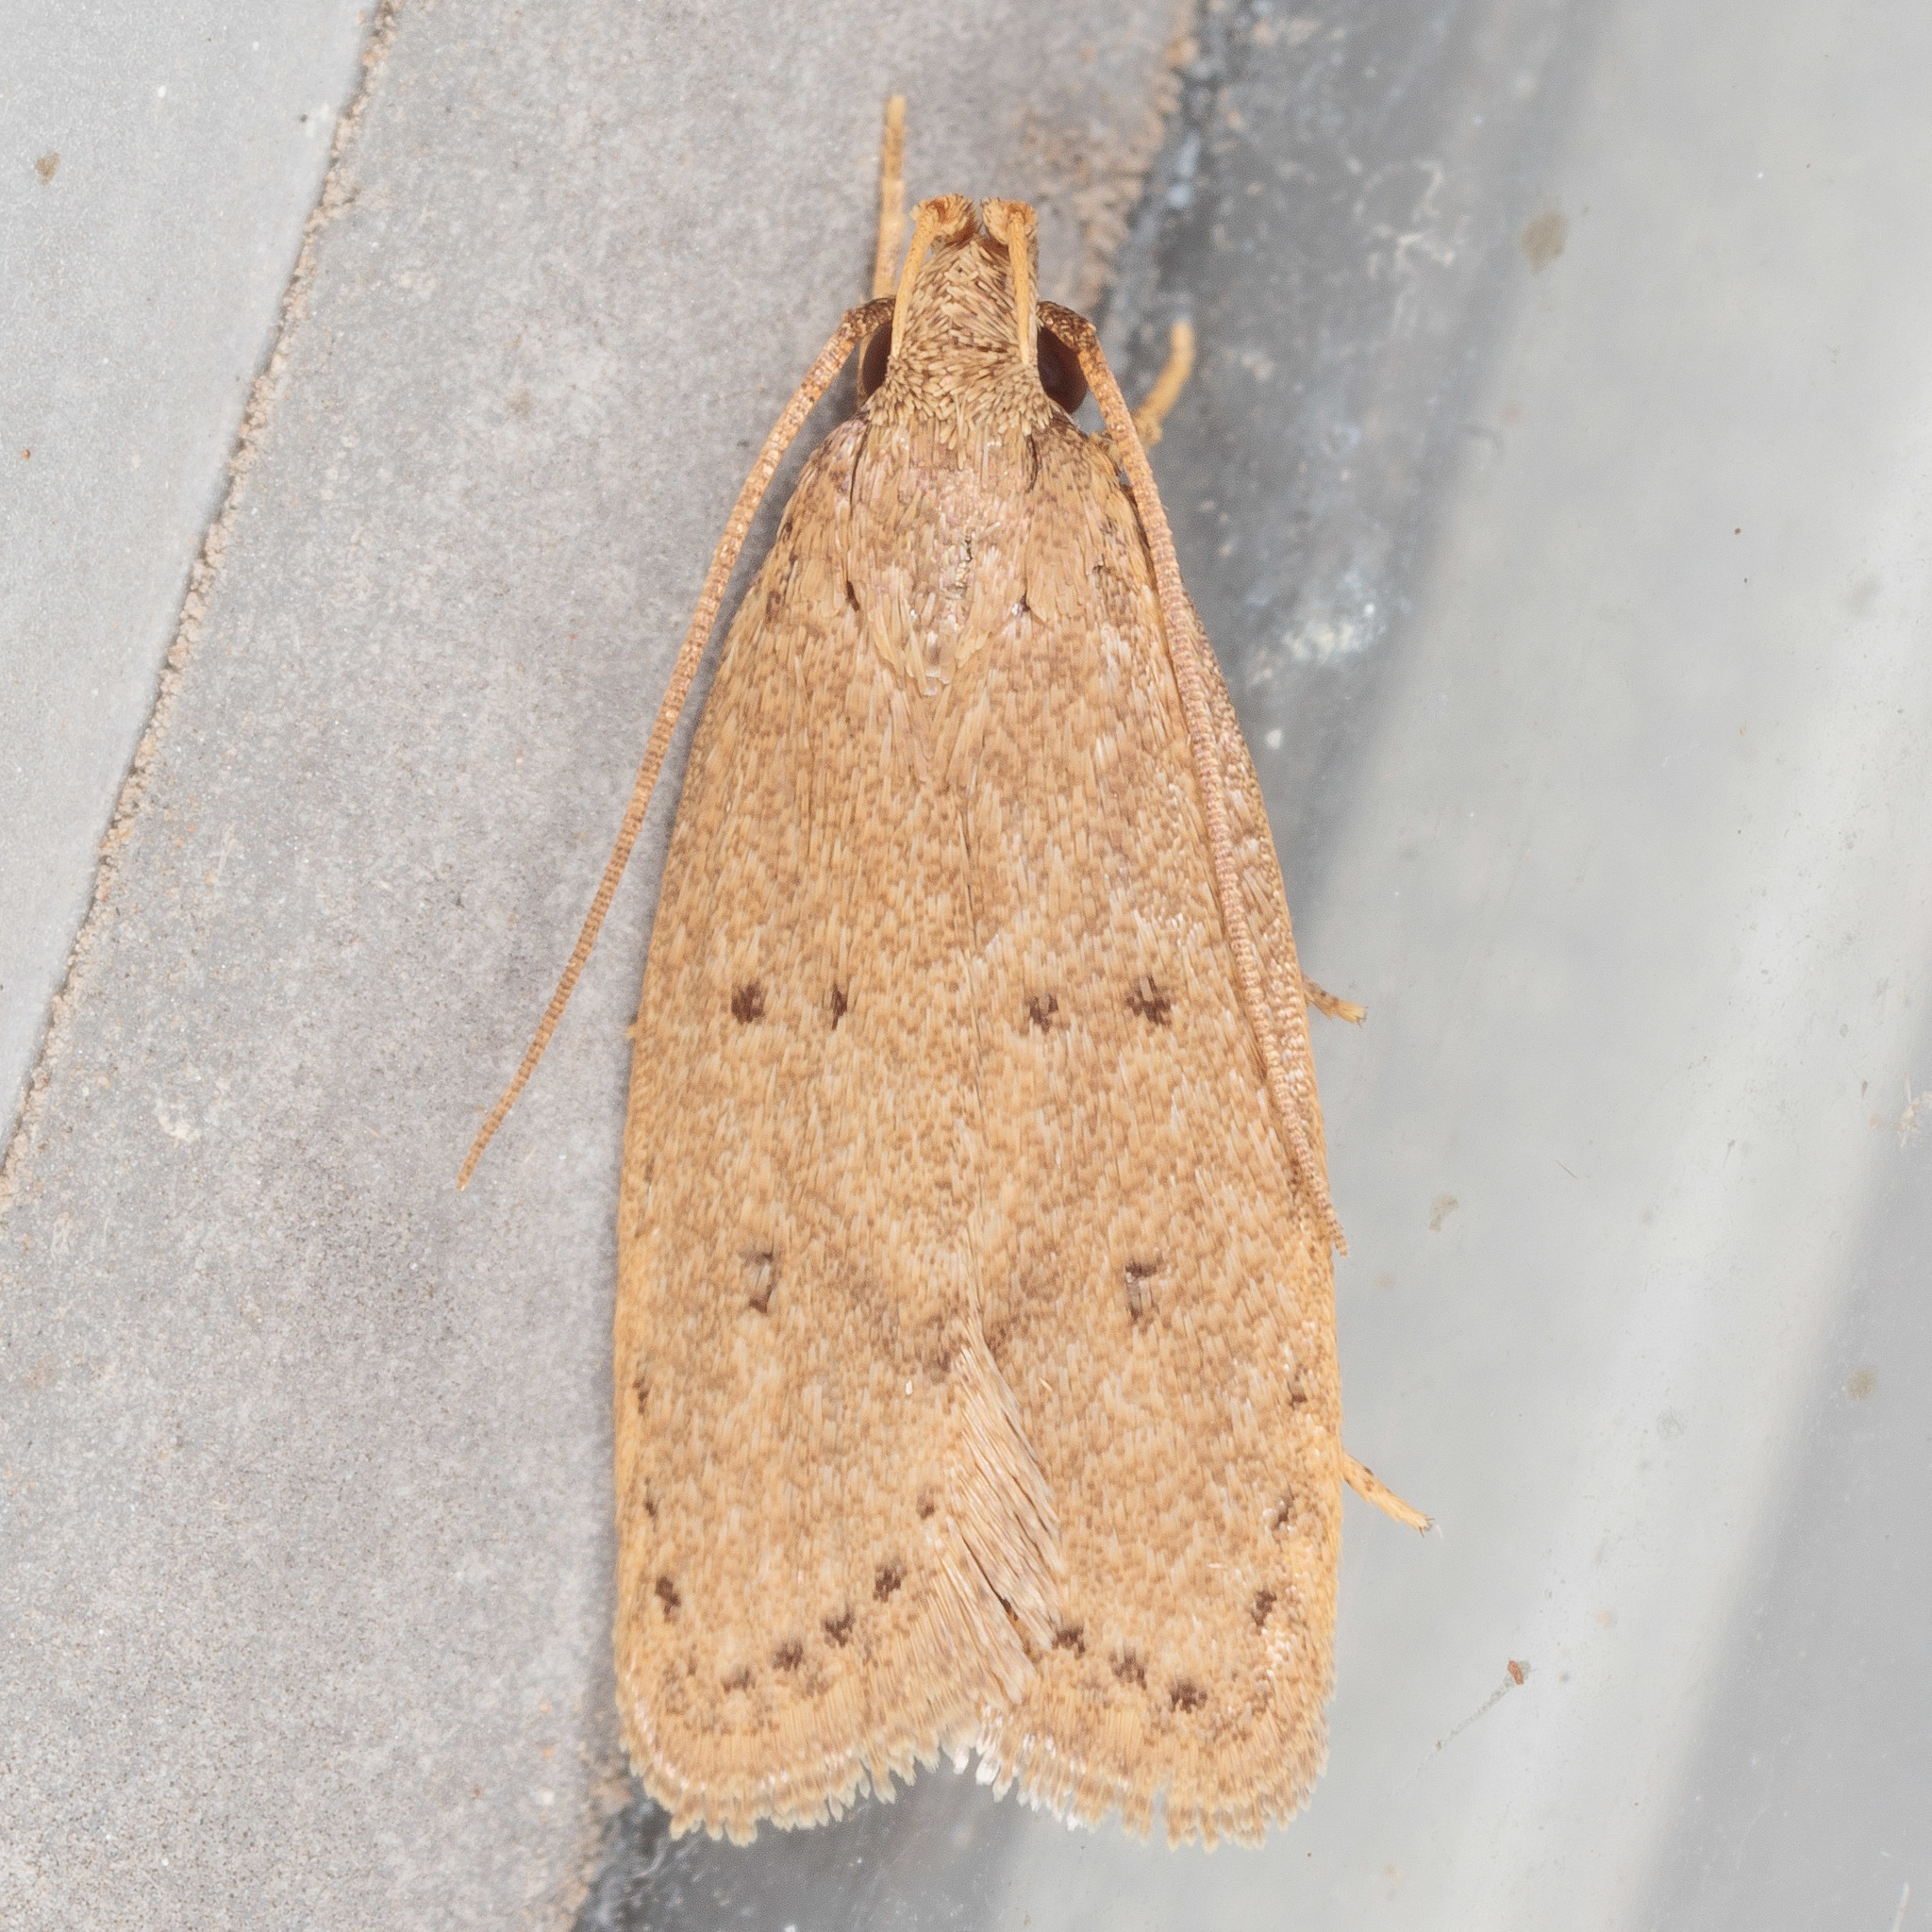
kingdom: Animalia
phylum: Arthropoda
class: Insecta
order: Lepidoptera
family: Autostichidae
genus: Autosticha
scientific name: Autosticha kyotensis
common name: Kyoto moth
